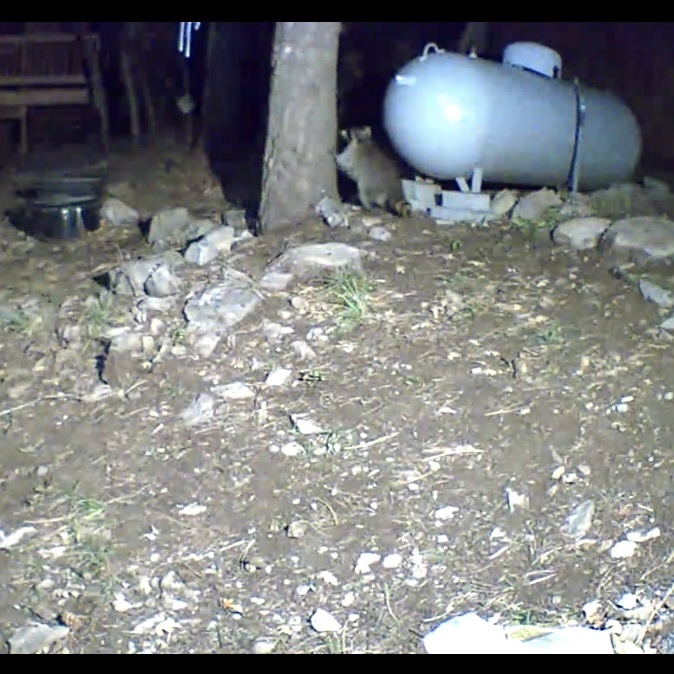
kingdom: Animalia
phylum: Chordata
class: Mammalia
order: Carnivora
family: Procyonidae
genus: Procyon
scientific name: Procyon lotor
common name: Raccoon
